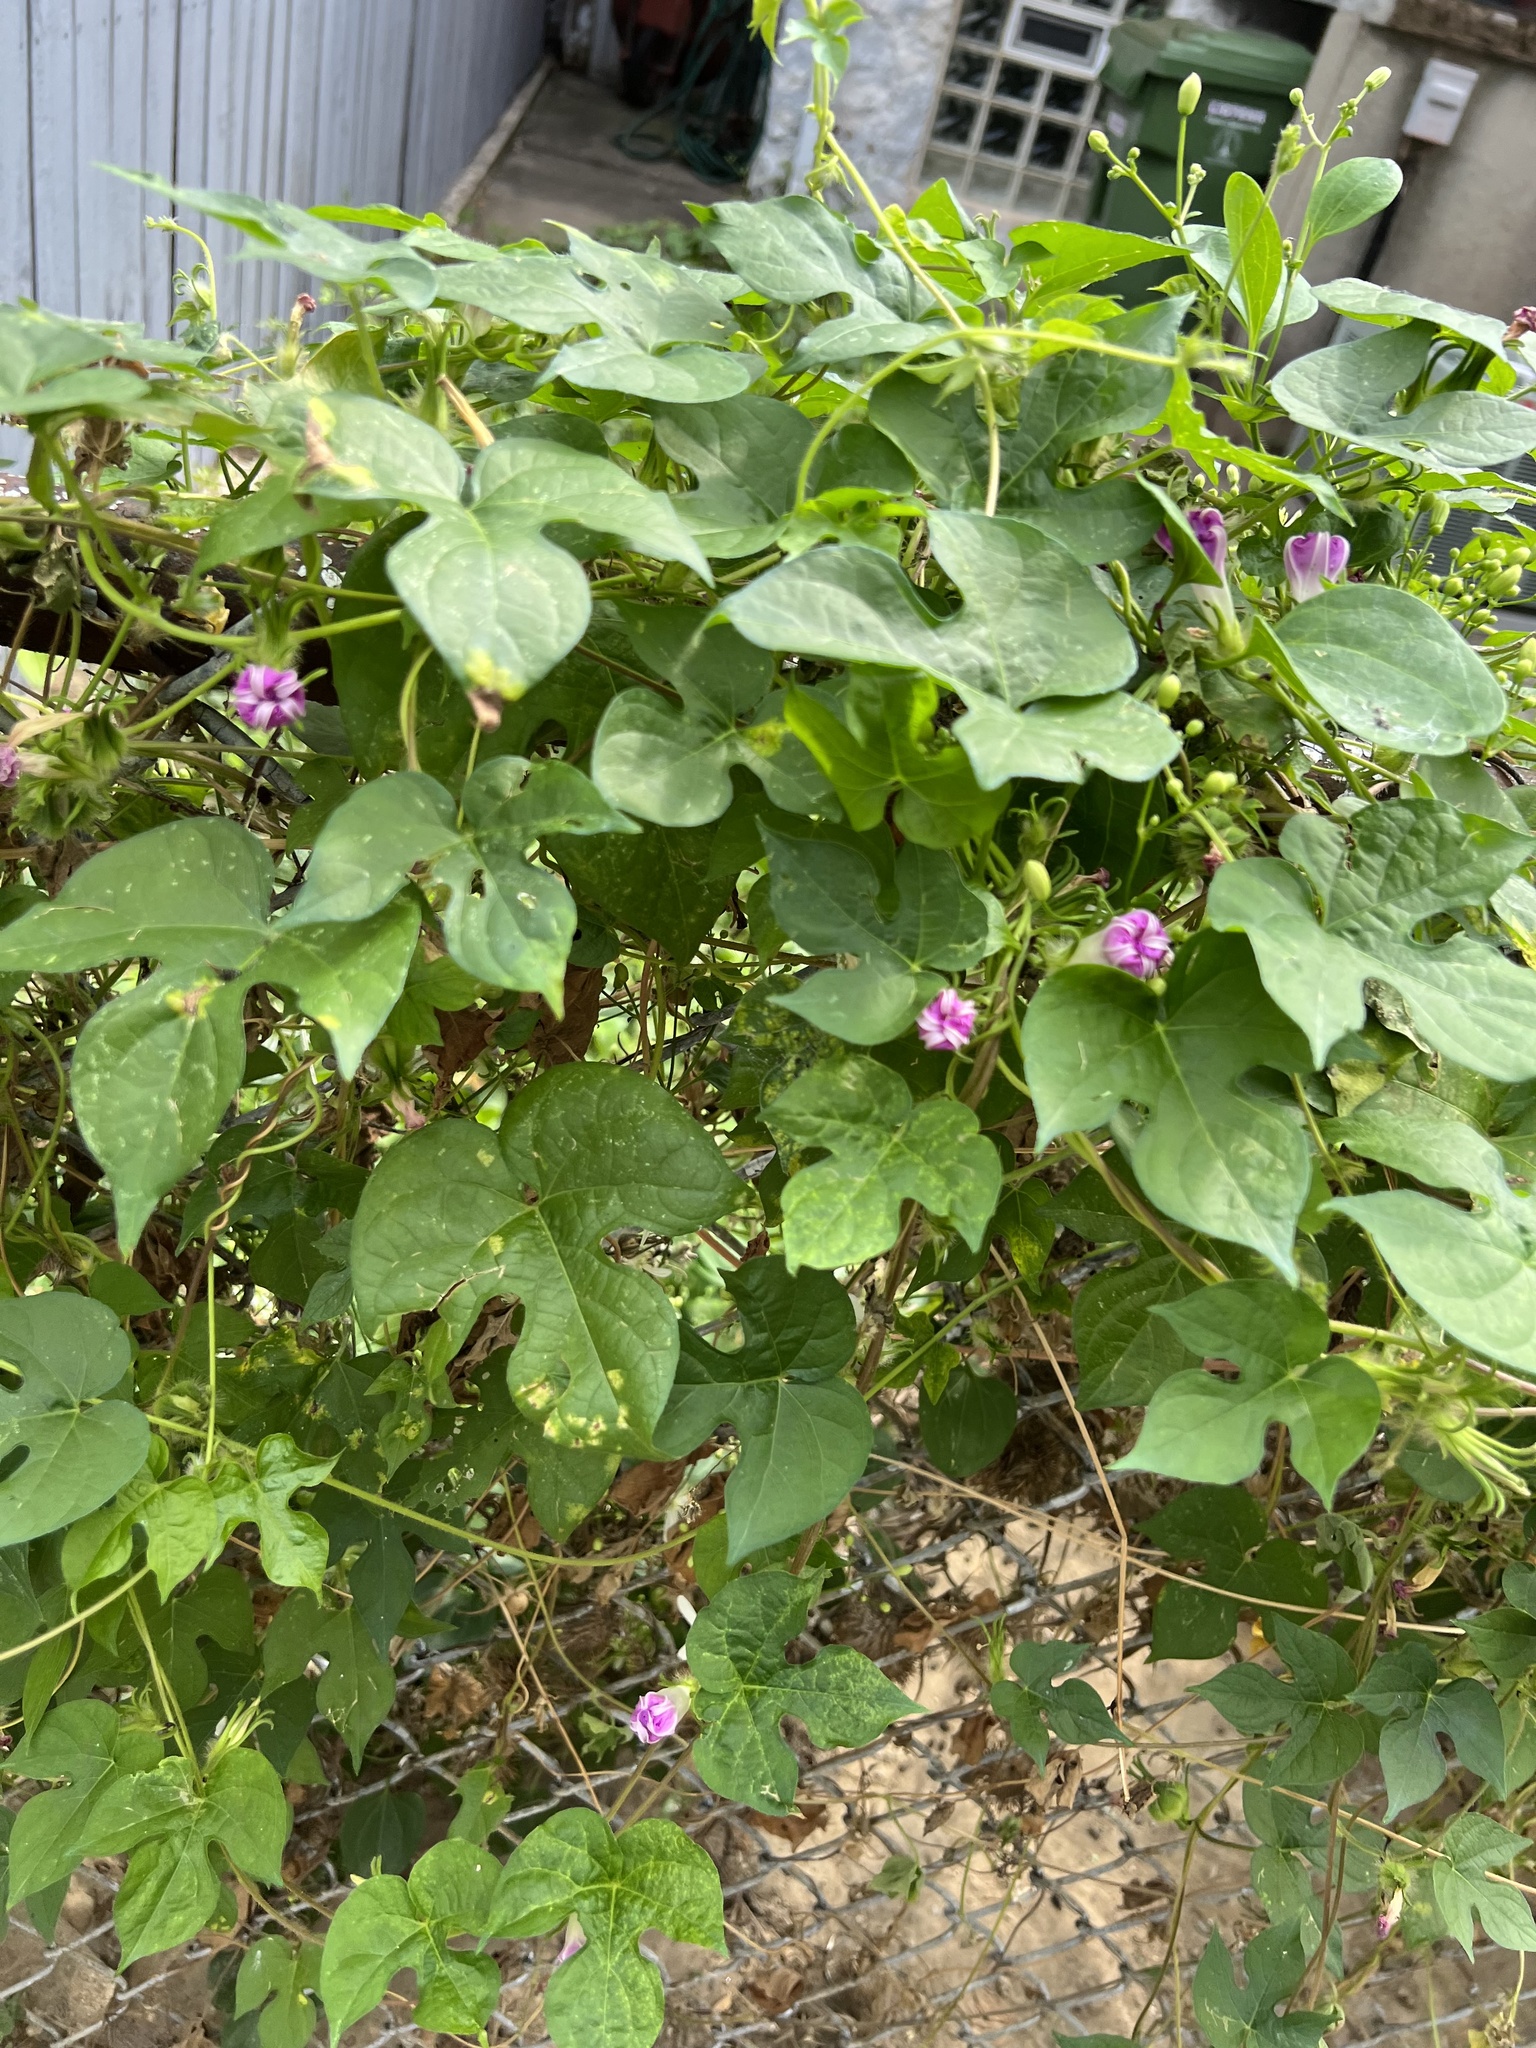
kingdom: Plantae
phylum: Tracheophyta
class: Magnoliopsida
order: Solanales
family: Convolvulaceae
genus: Ipomoea
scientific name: Ipomoea hederacea
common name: Ivy-leaved morning-glory
